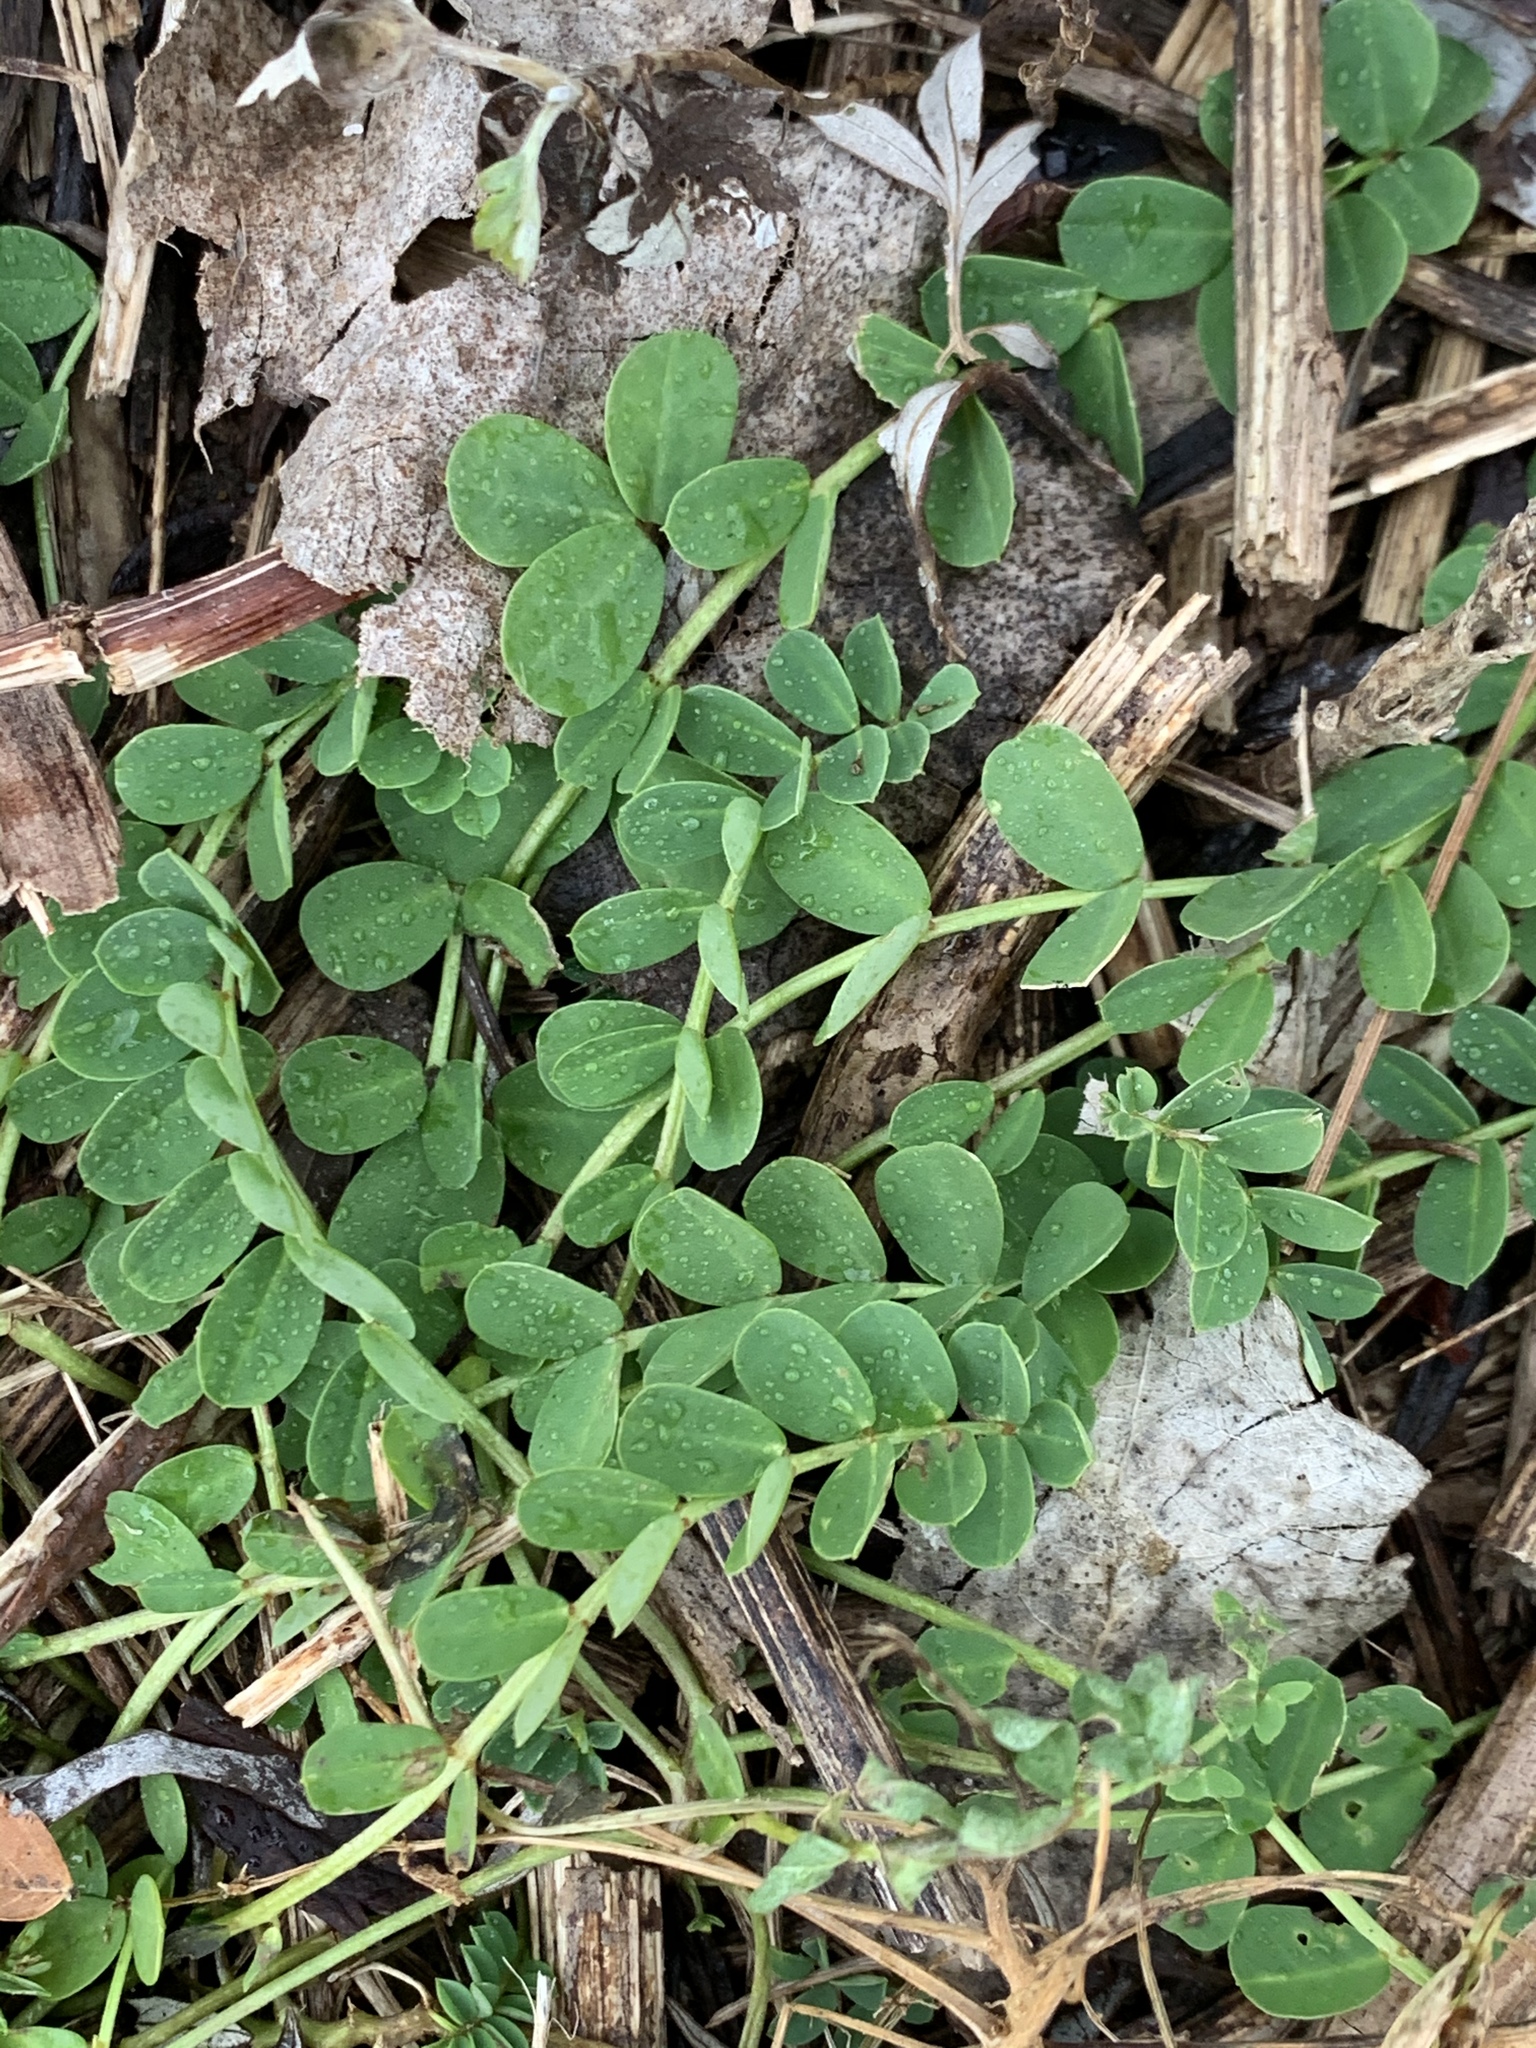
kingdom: Plantae
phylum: Tracheophyta
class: Magnoliopsida
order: Fabales
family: Fabaceae
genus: Coronilla
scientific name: Coronilla varia
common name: Crownvetch
